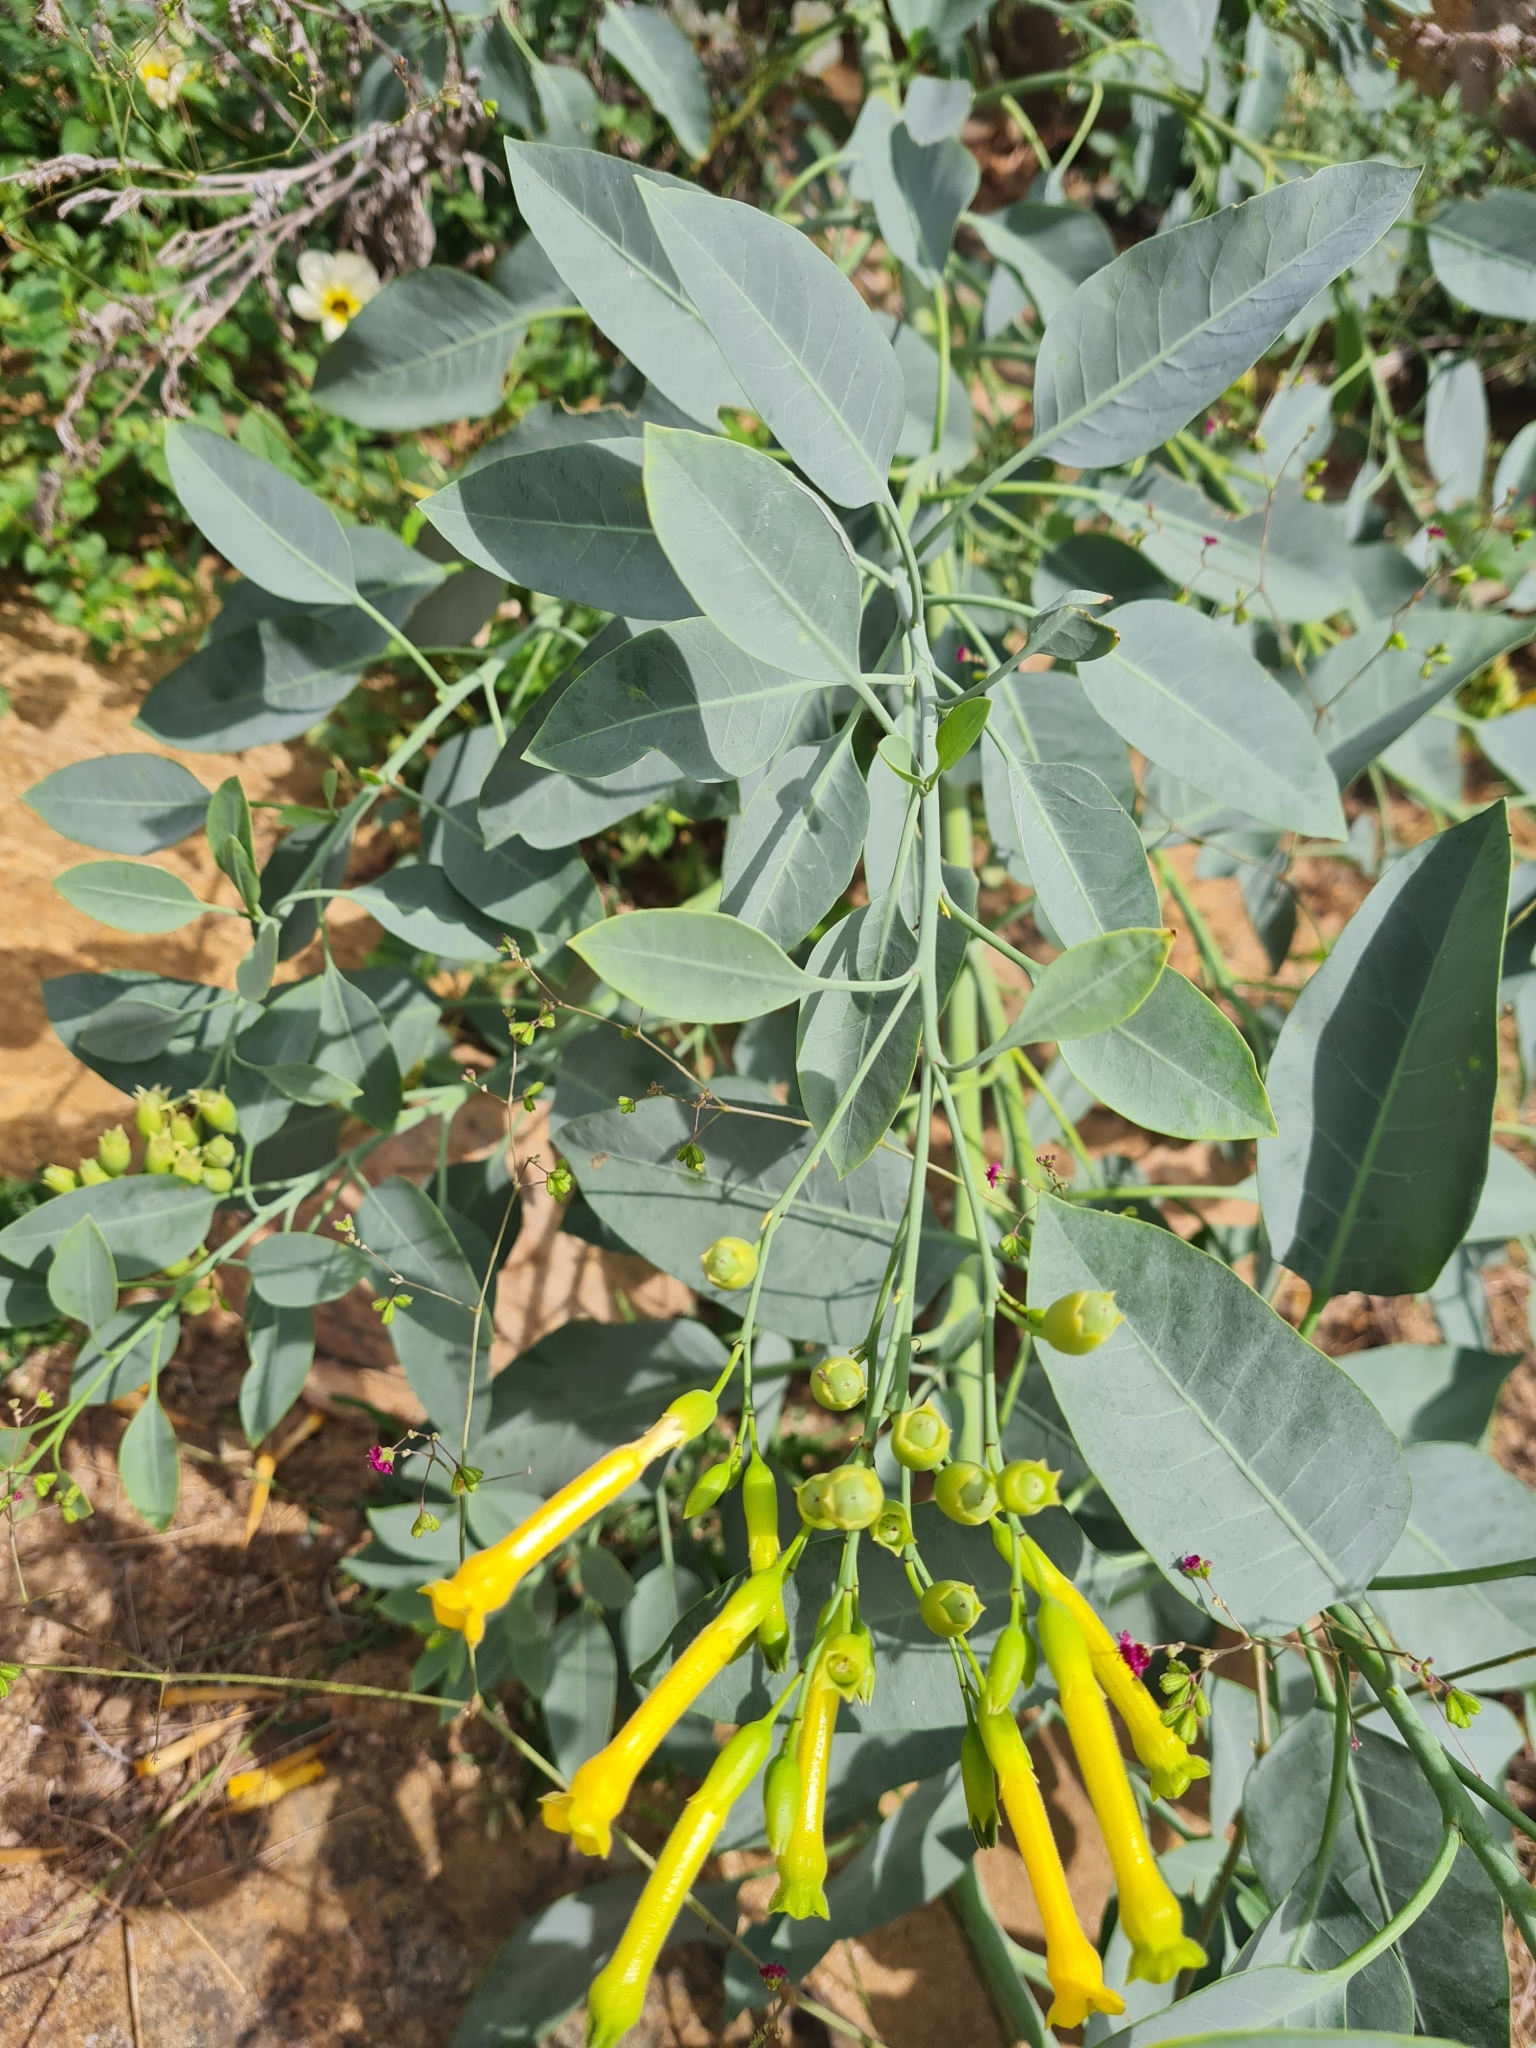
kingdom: Plantae
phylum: Tracheophyta
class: Magnoliopsida
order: Solanales
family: Solanaceae
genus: Nicotiana
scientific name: Nicotiana glauca
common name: Tree tobacco
